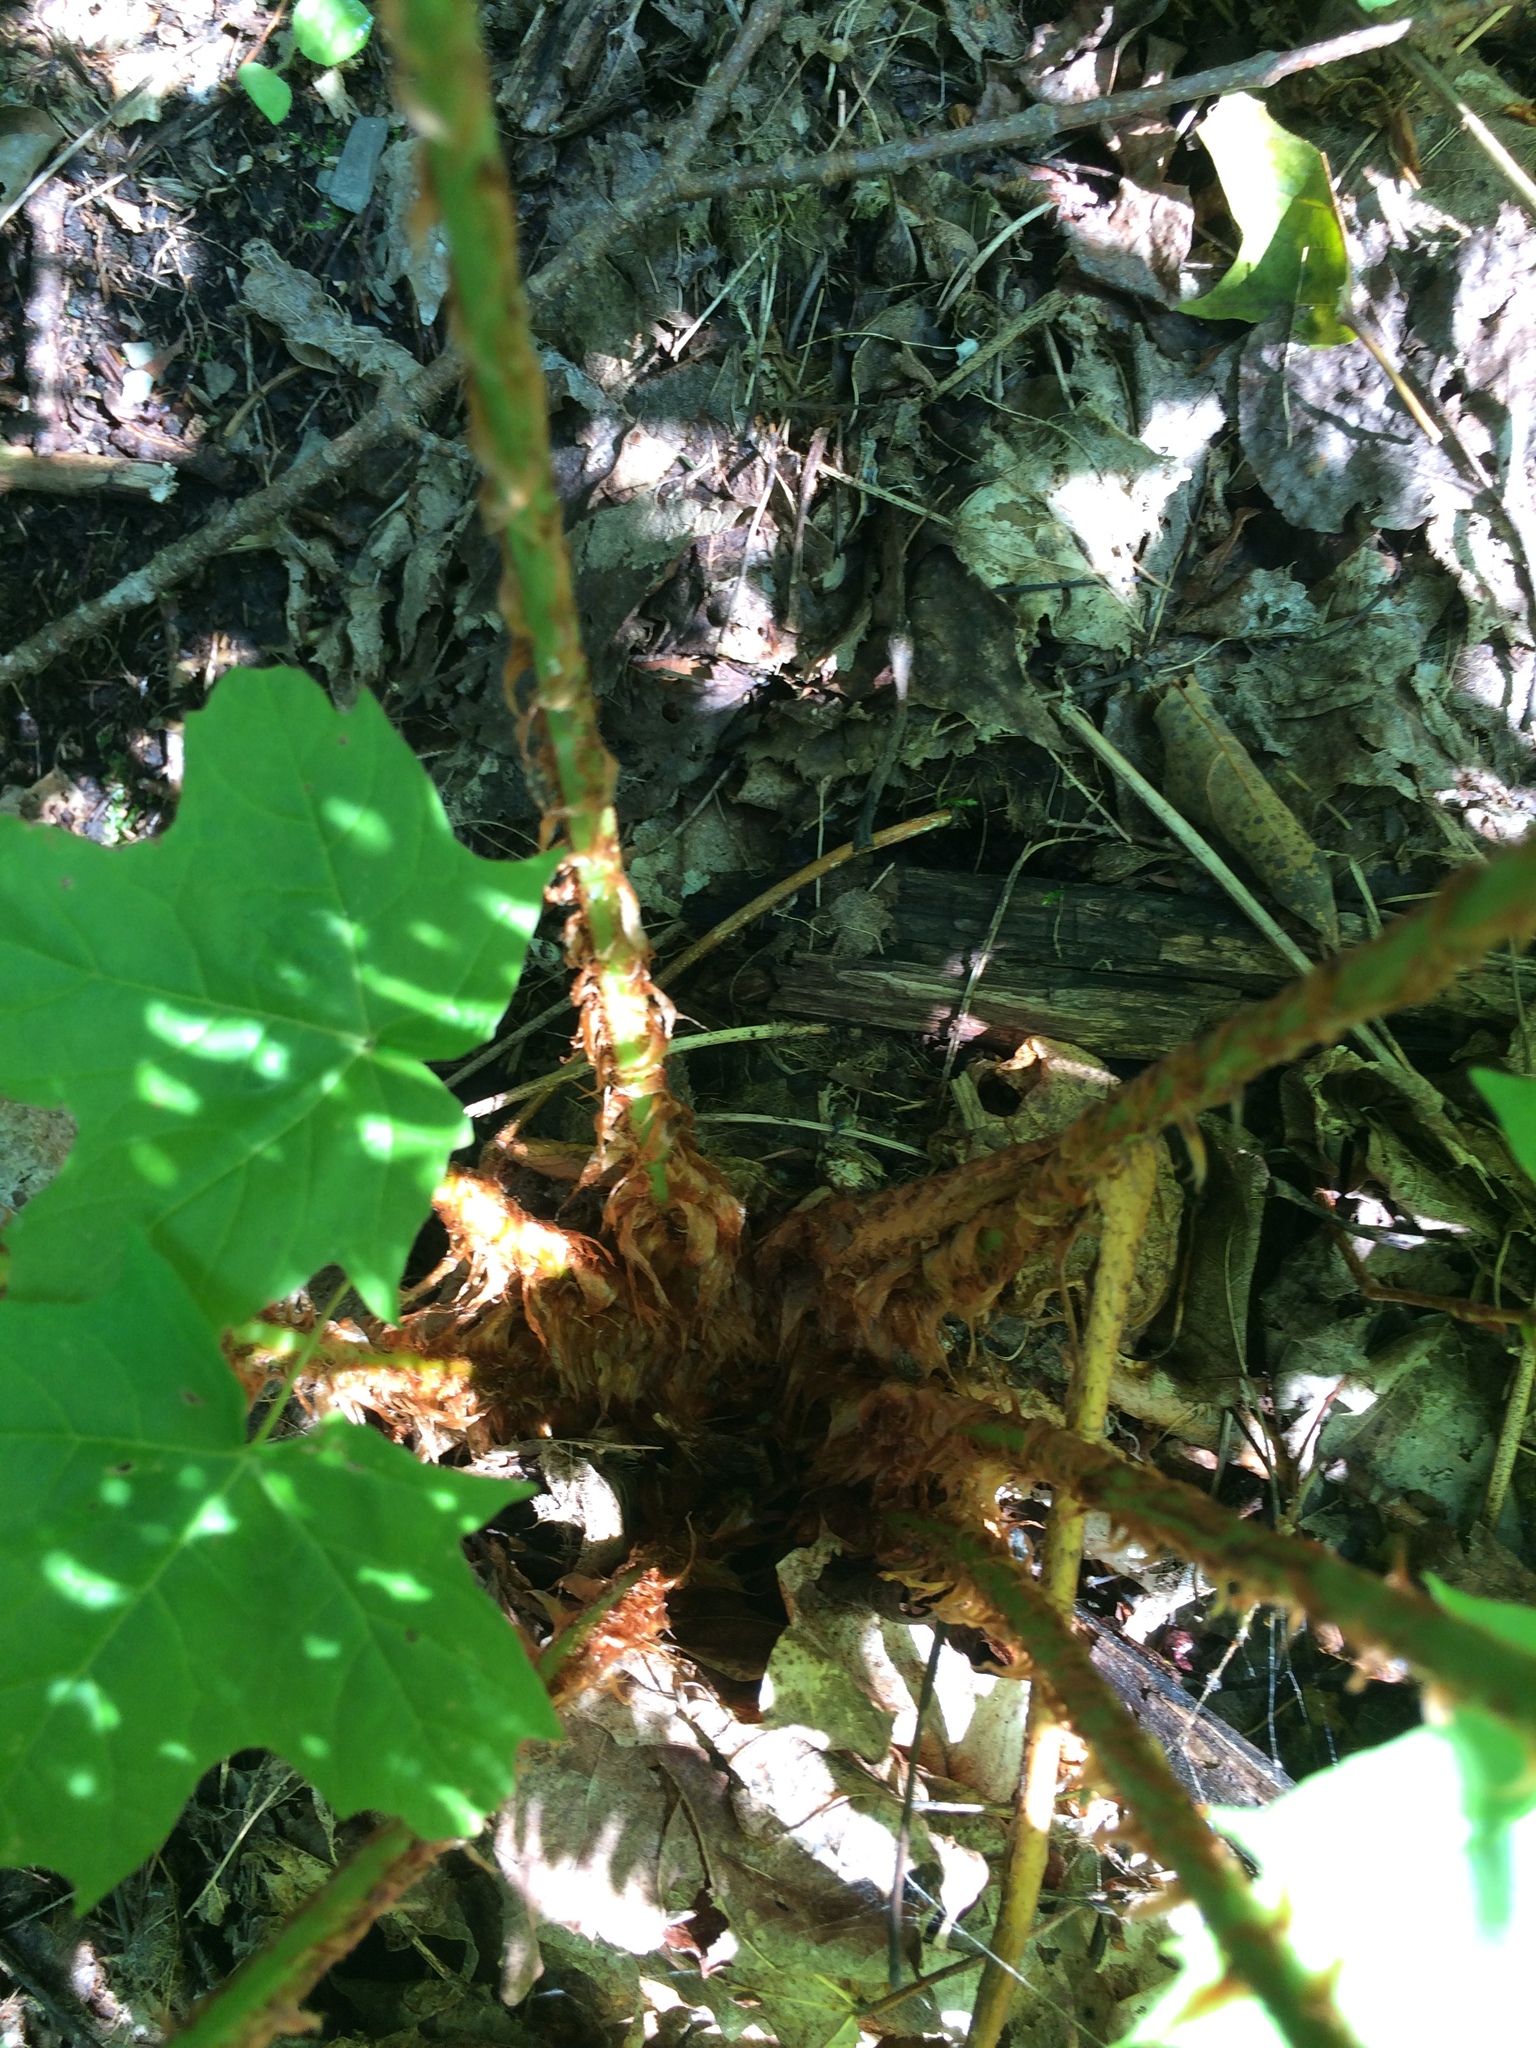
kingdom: Plantae
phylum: Tracheophyta
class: Polypodiopsida
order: Polypodiales
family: Dryopteridaceae
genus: Dryopteris
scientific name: Dryopteris marginalis
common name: Marginal wood fern
